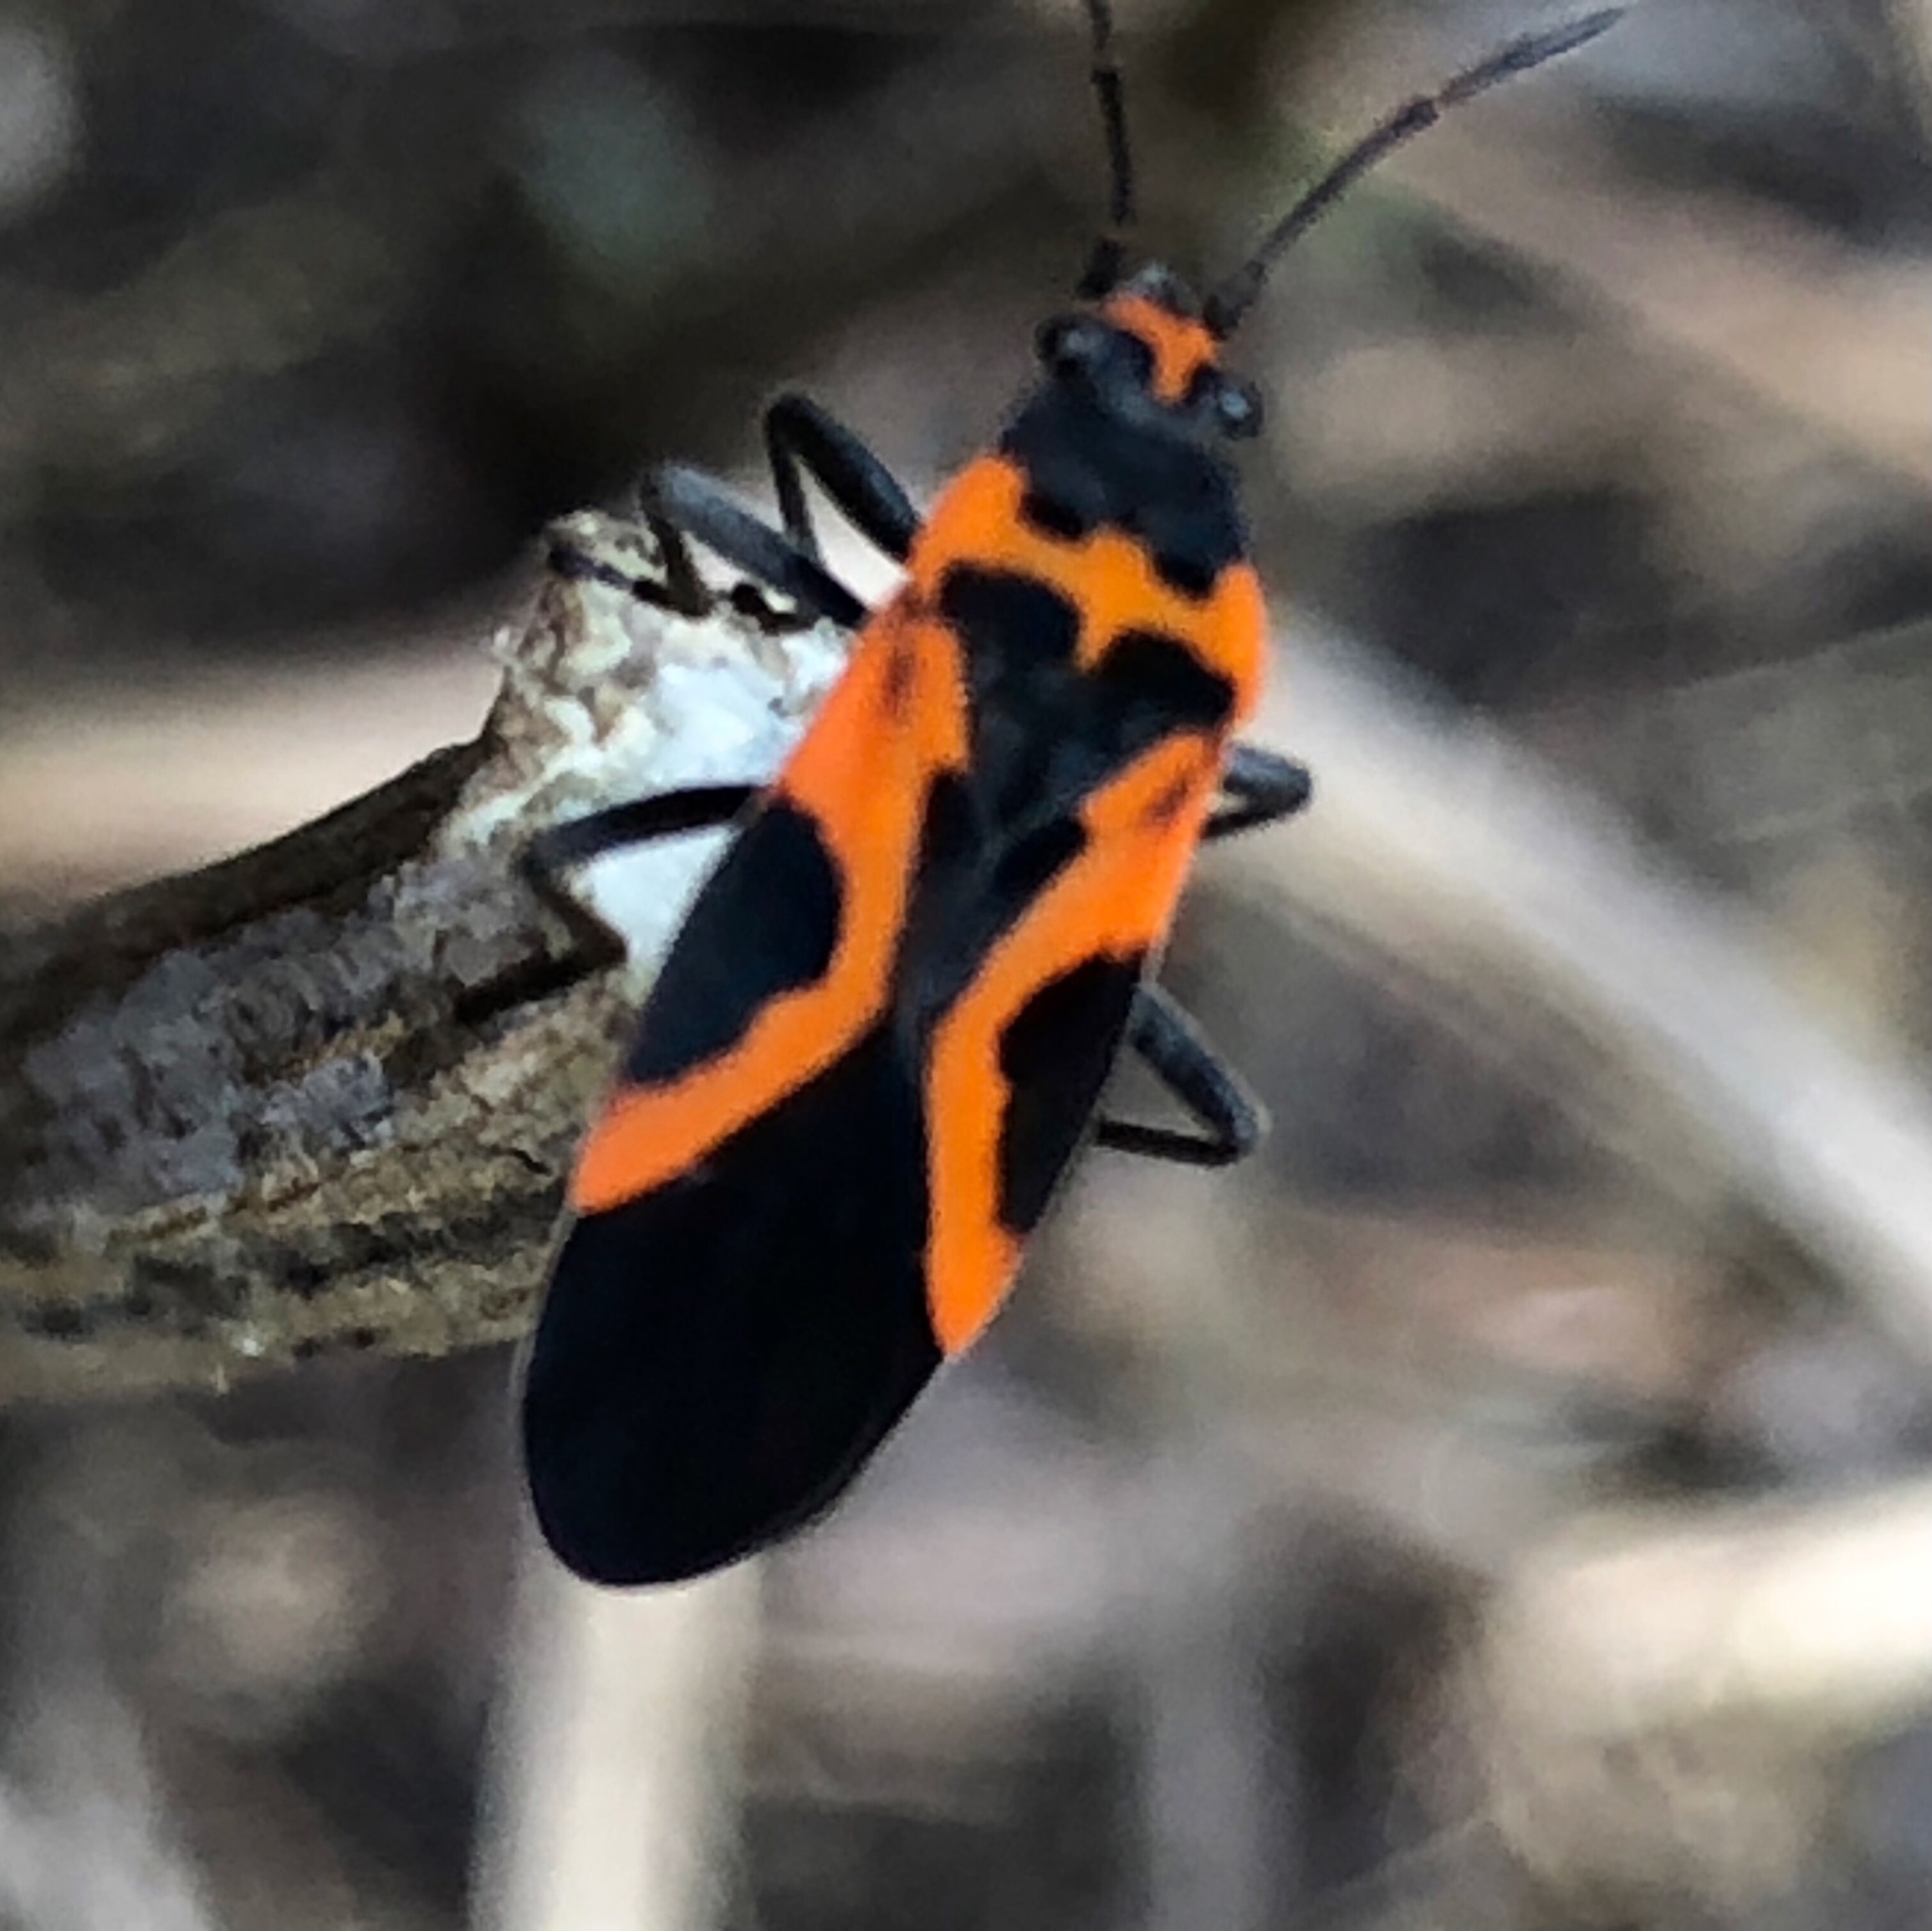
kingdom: Animalia
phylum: Arthropoda
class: Insecta
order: Hemiptera
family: Lygaeidae
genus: Lygaeus
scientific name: Lygaeus turcicus
